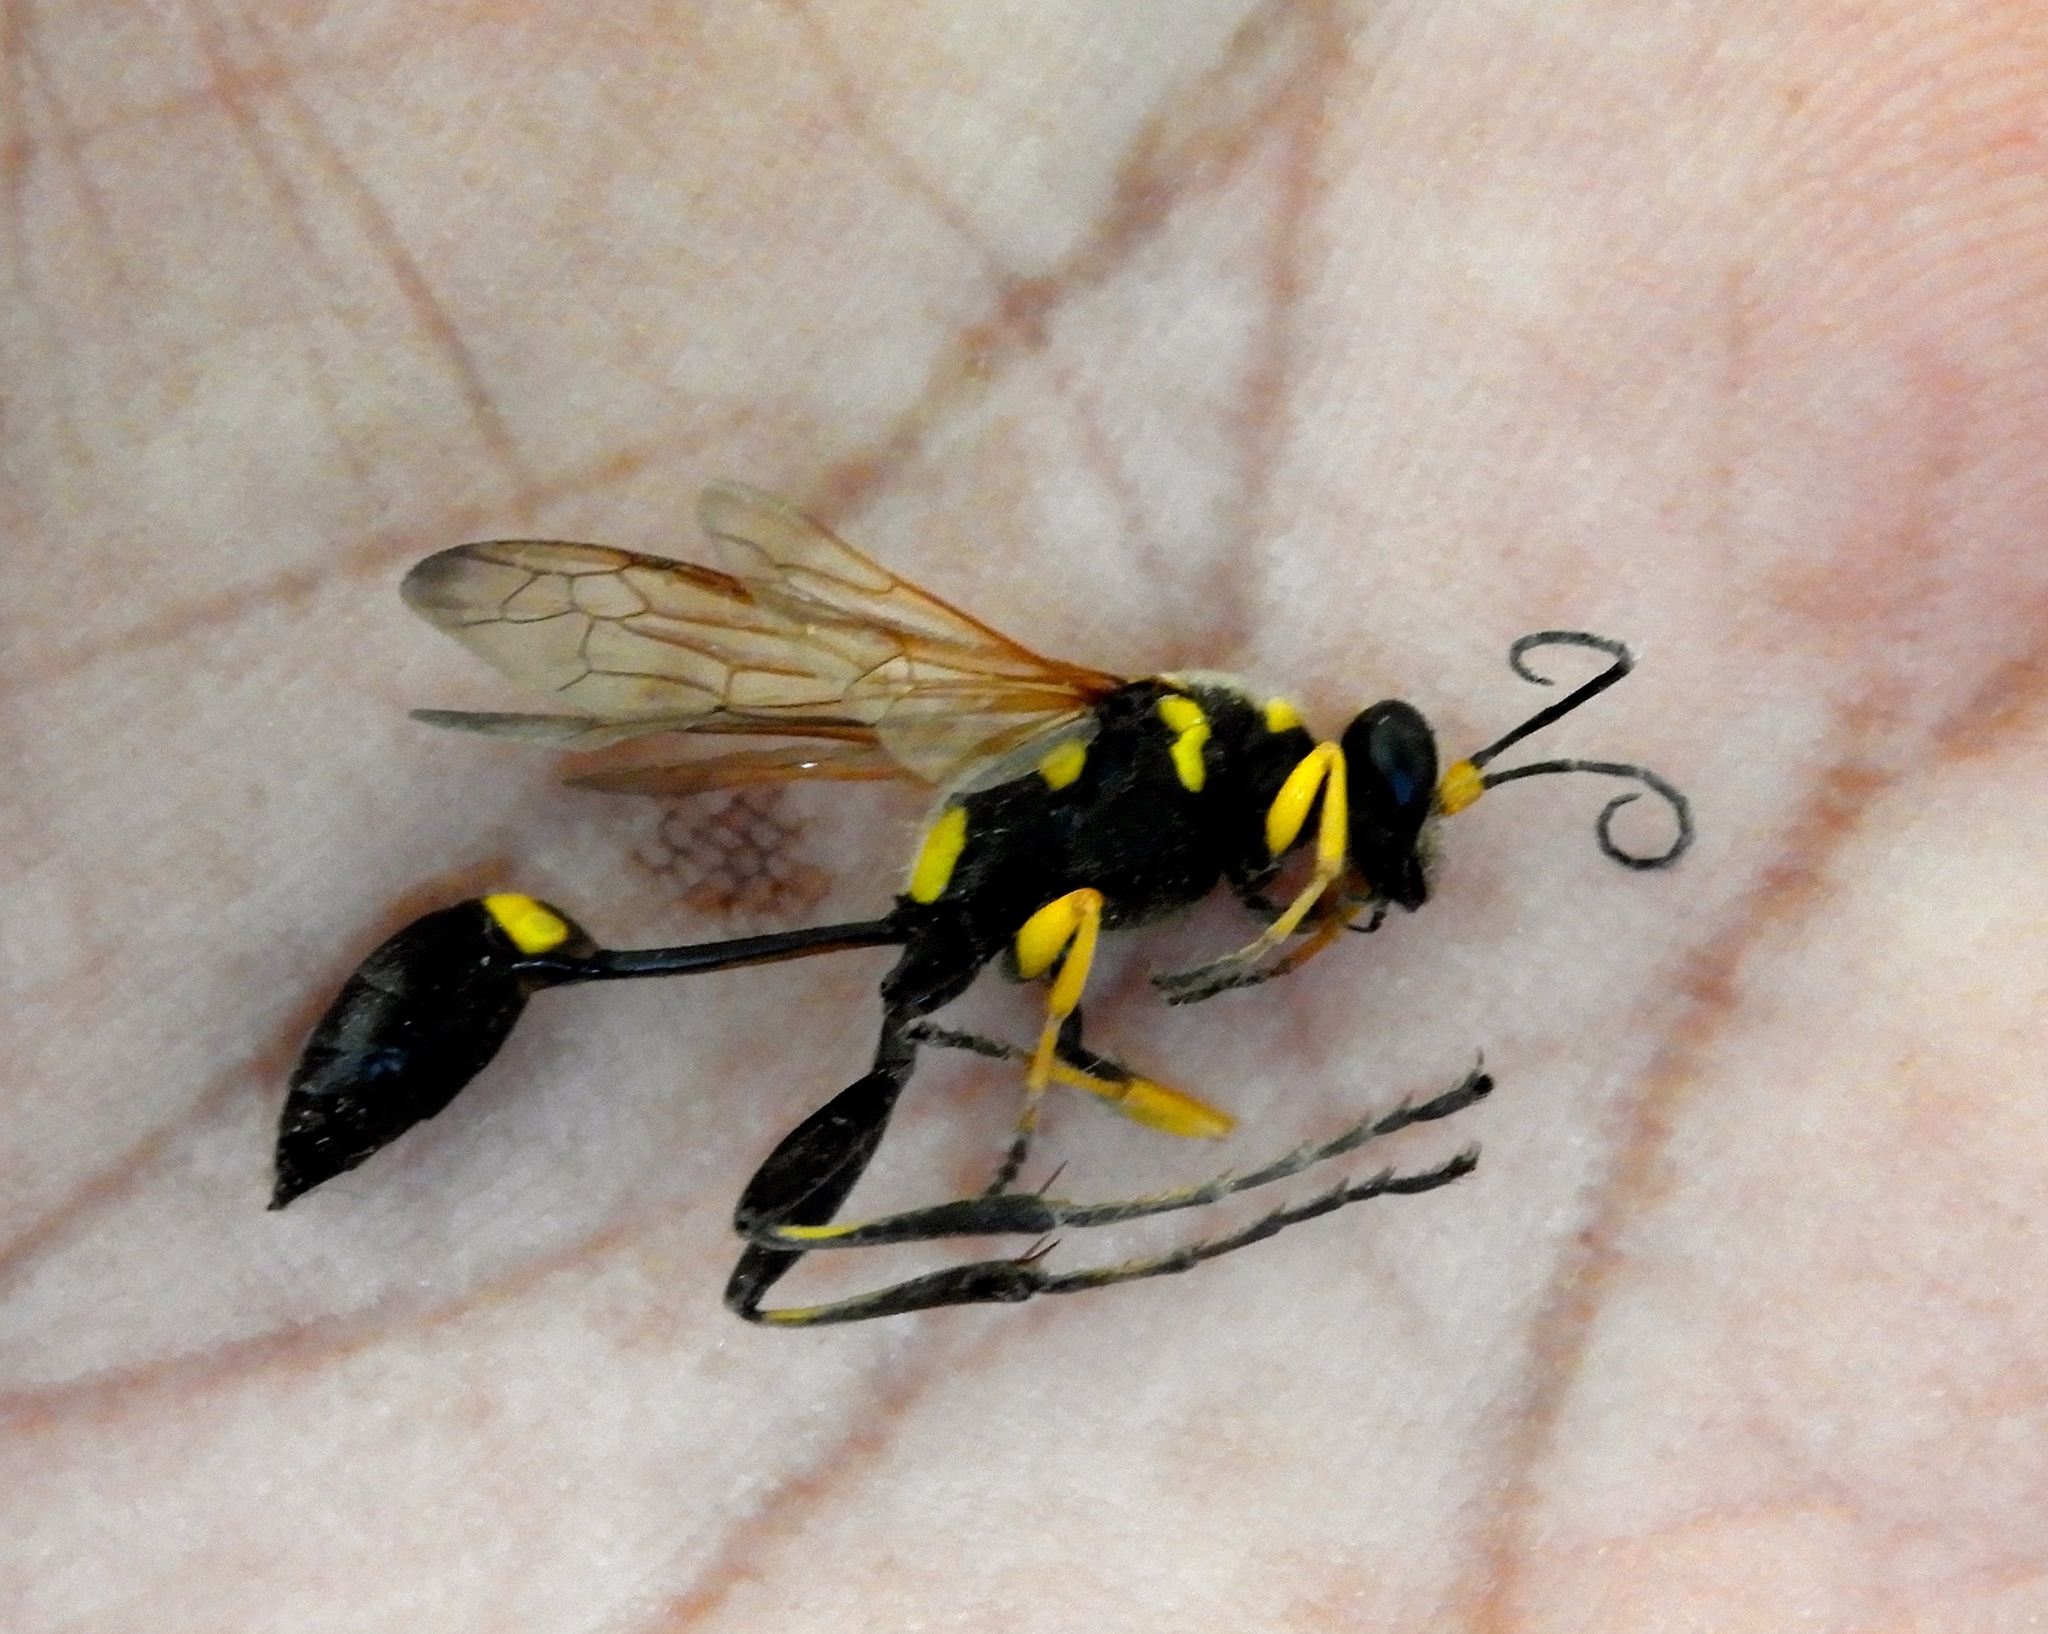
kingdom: Animalia
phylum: Arthropoda
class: Insecta
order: Hymenoptera
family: Sphecidae
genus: Sceliphron
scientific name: Sceliphron assimile
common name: Clayman's mud dauber
